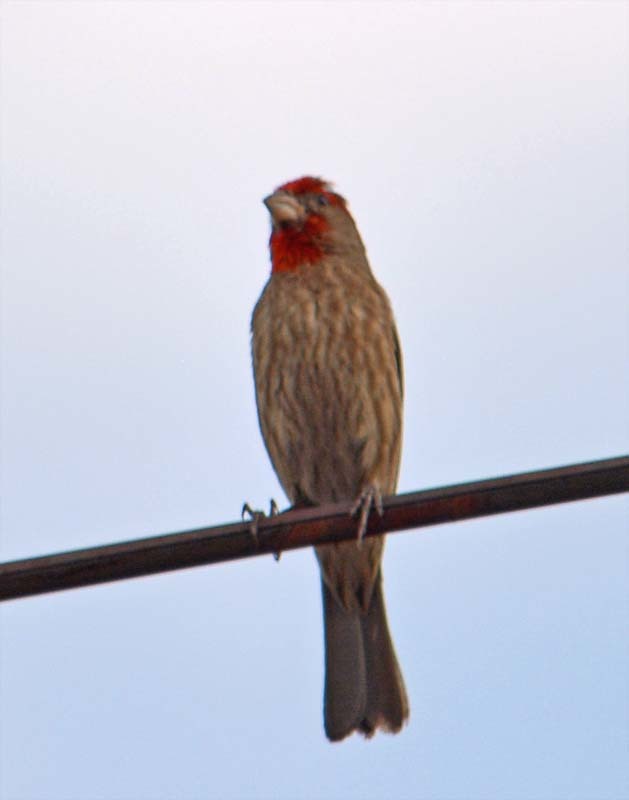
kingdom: Animalia
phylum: Chordata
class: Aves
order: Passeriformes
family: Fringillidae
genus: Haemorhous
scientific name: Haemorhous mexicanus
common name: House finch
